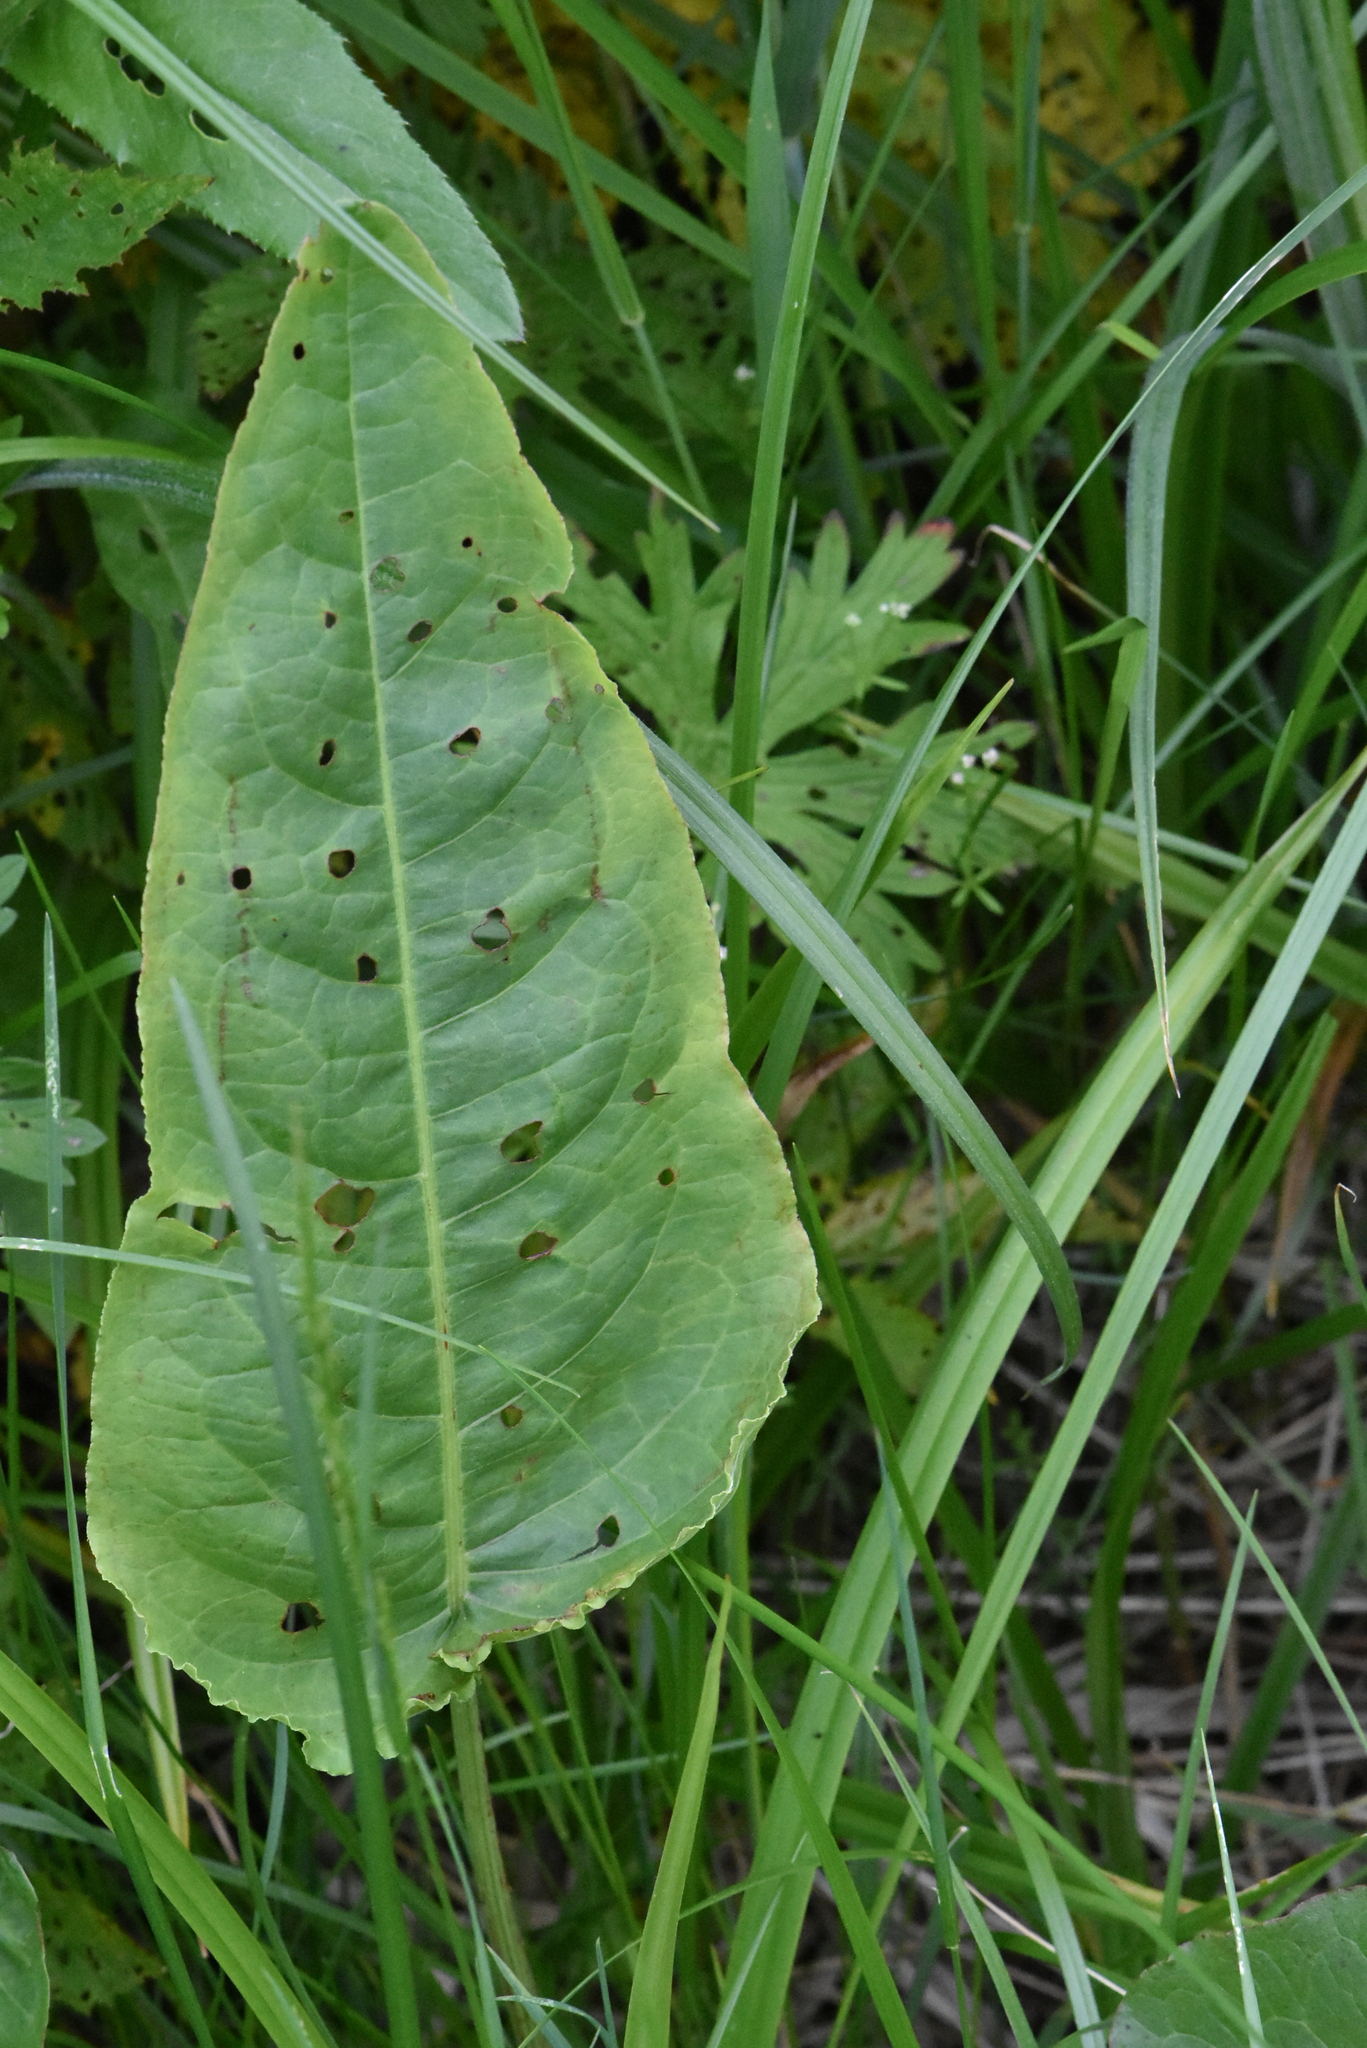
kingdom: Plantae
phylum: Tracheophyta
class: Magnoliopsida
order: Caryophyllales
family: Polygonaceae
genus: Rumex
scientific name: Rumex aquaticus
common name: Scottish dock
